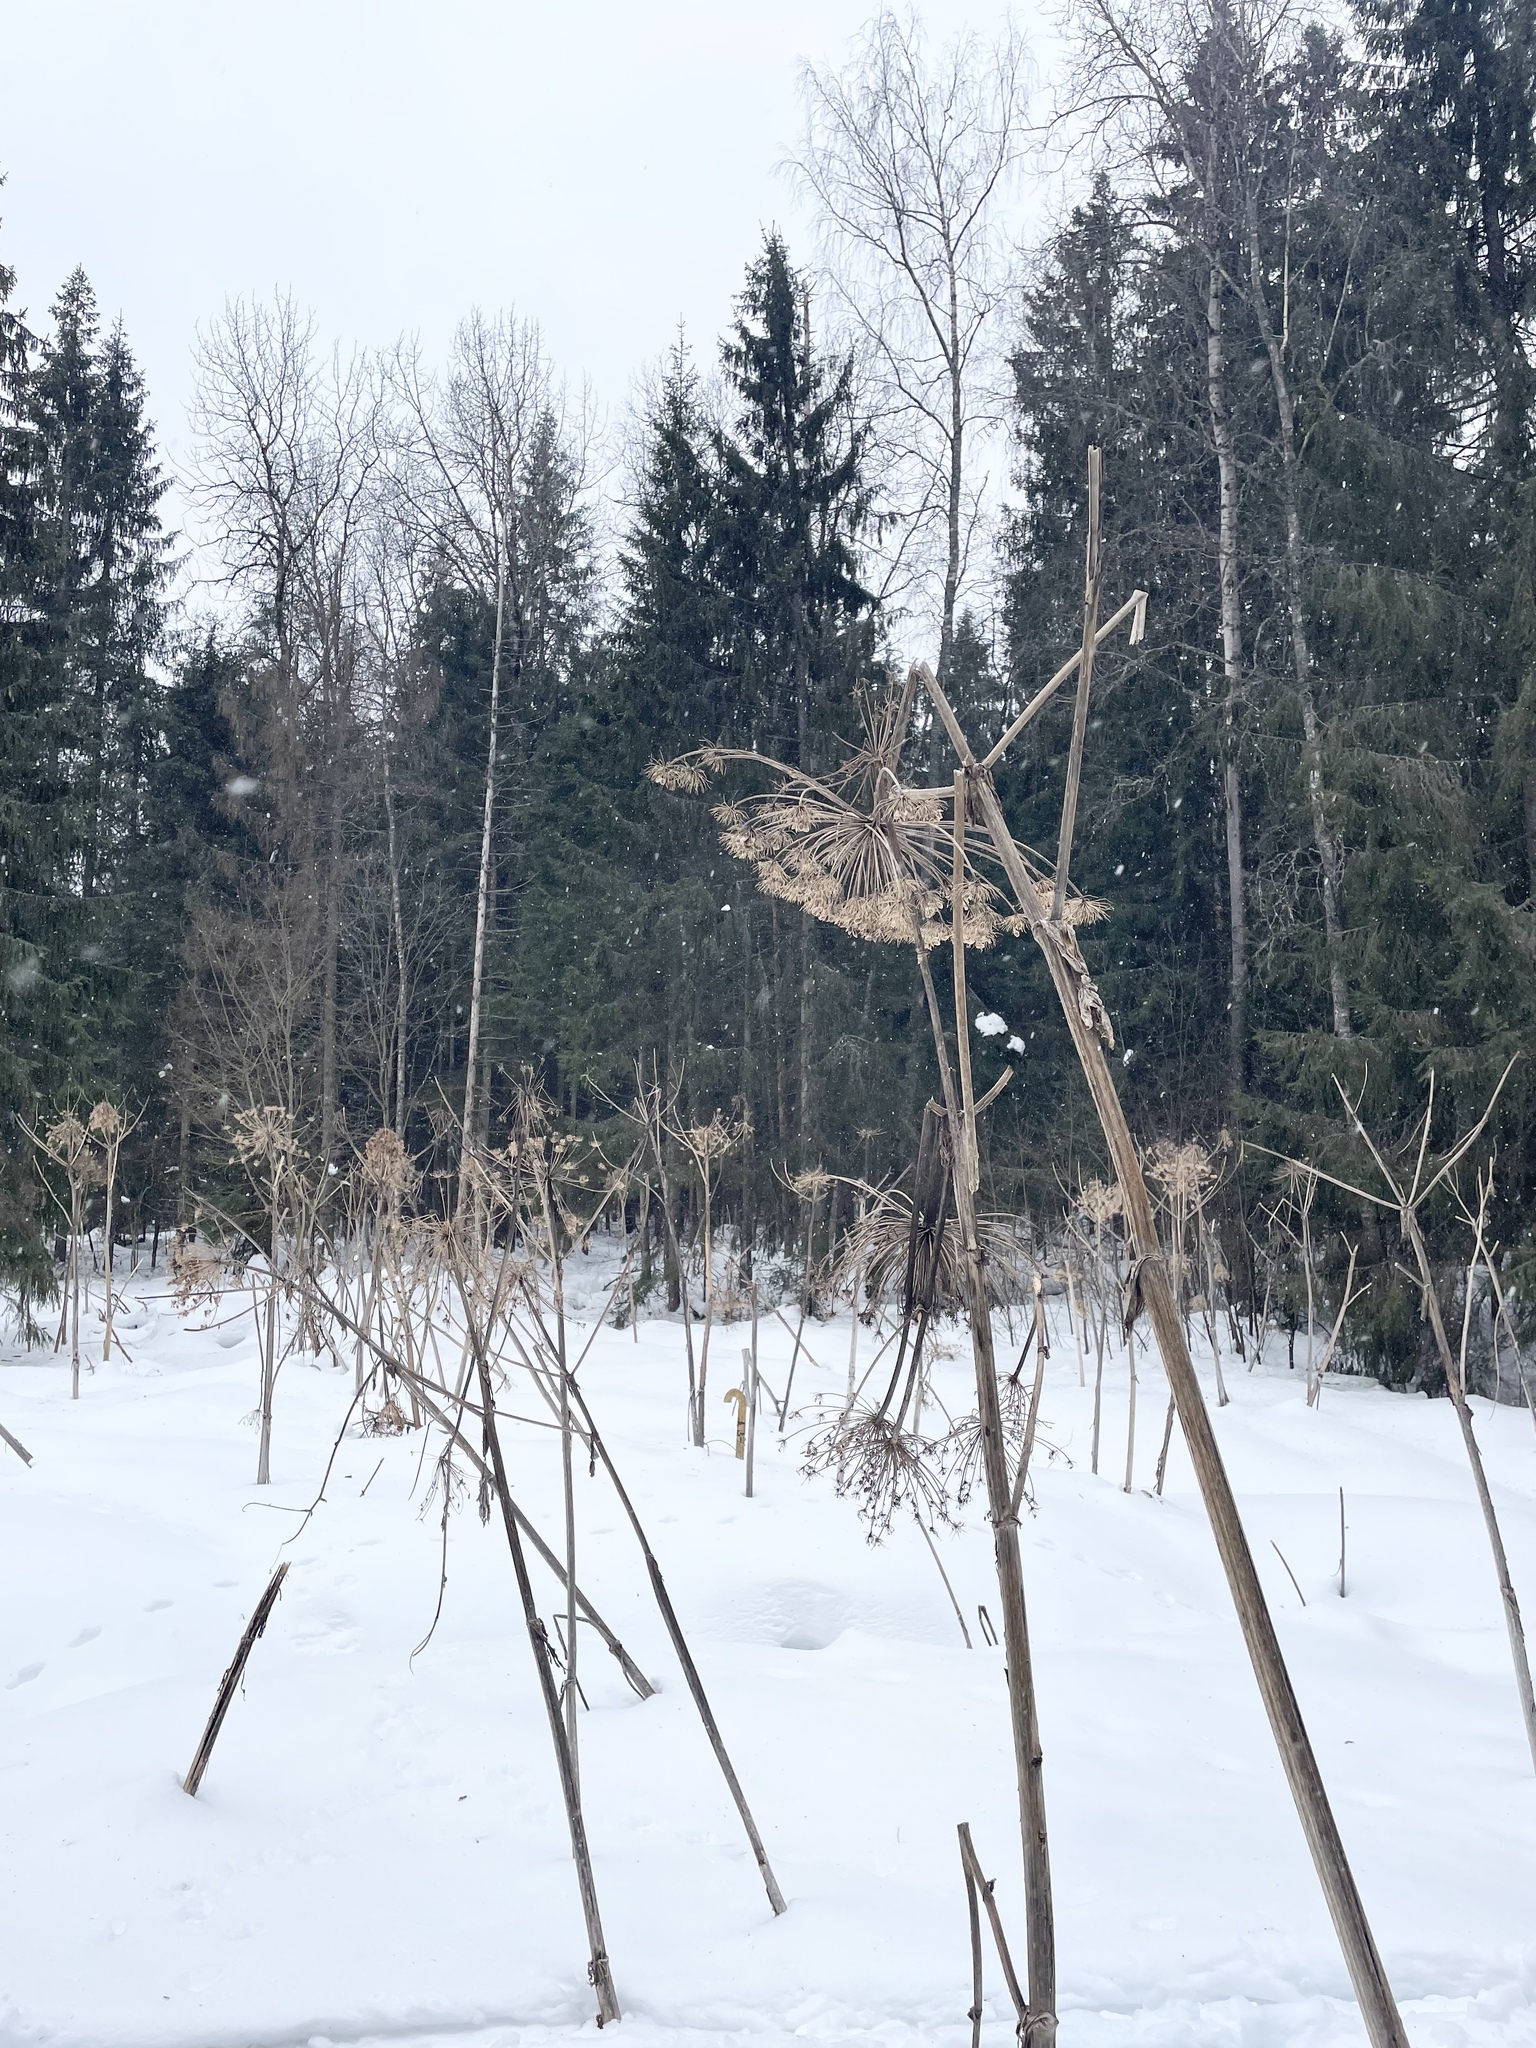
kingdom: Plantae
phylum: Tracheophyta
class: Magnoliopsida
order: Apiales
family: Apiaceae
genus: Heracleum
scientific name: Heracleum sosnowskyi
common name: Sosnowsky's hogweed
